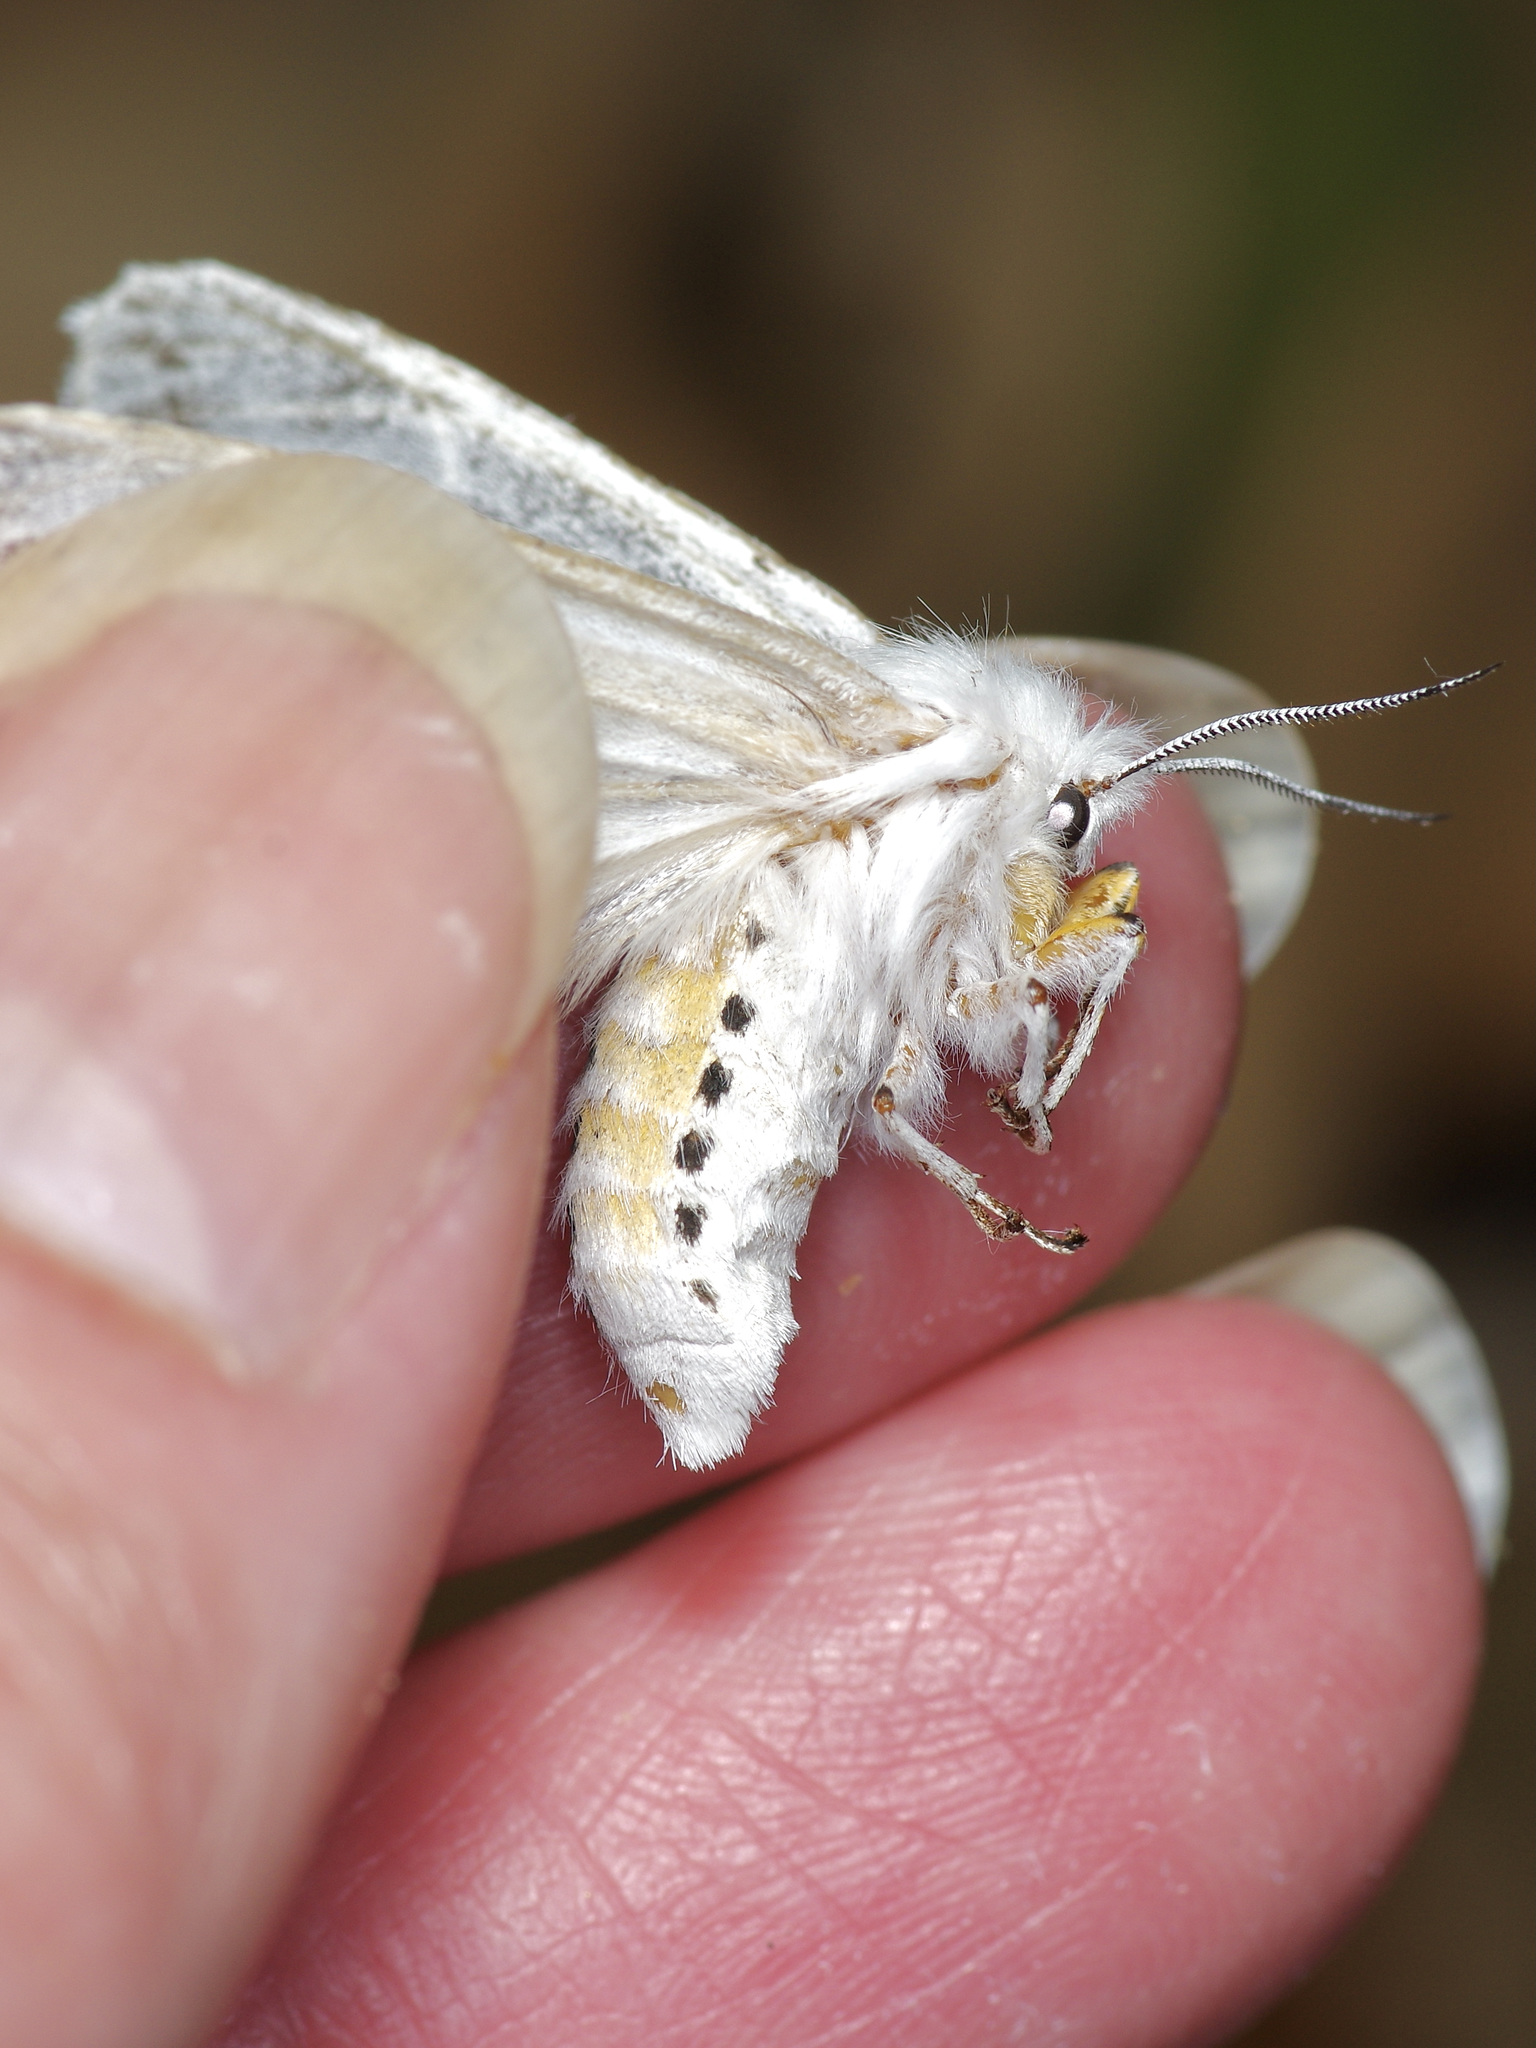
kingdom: Animalia
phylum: Arthropoda
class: Insecta
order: Lepidoptera
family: Erebidae
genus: Spilosoma
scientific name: Spilosoma dubia
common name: Dubious tiger moth
